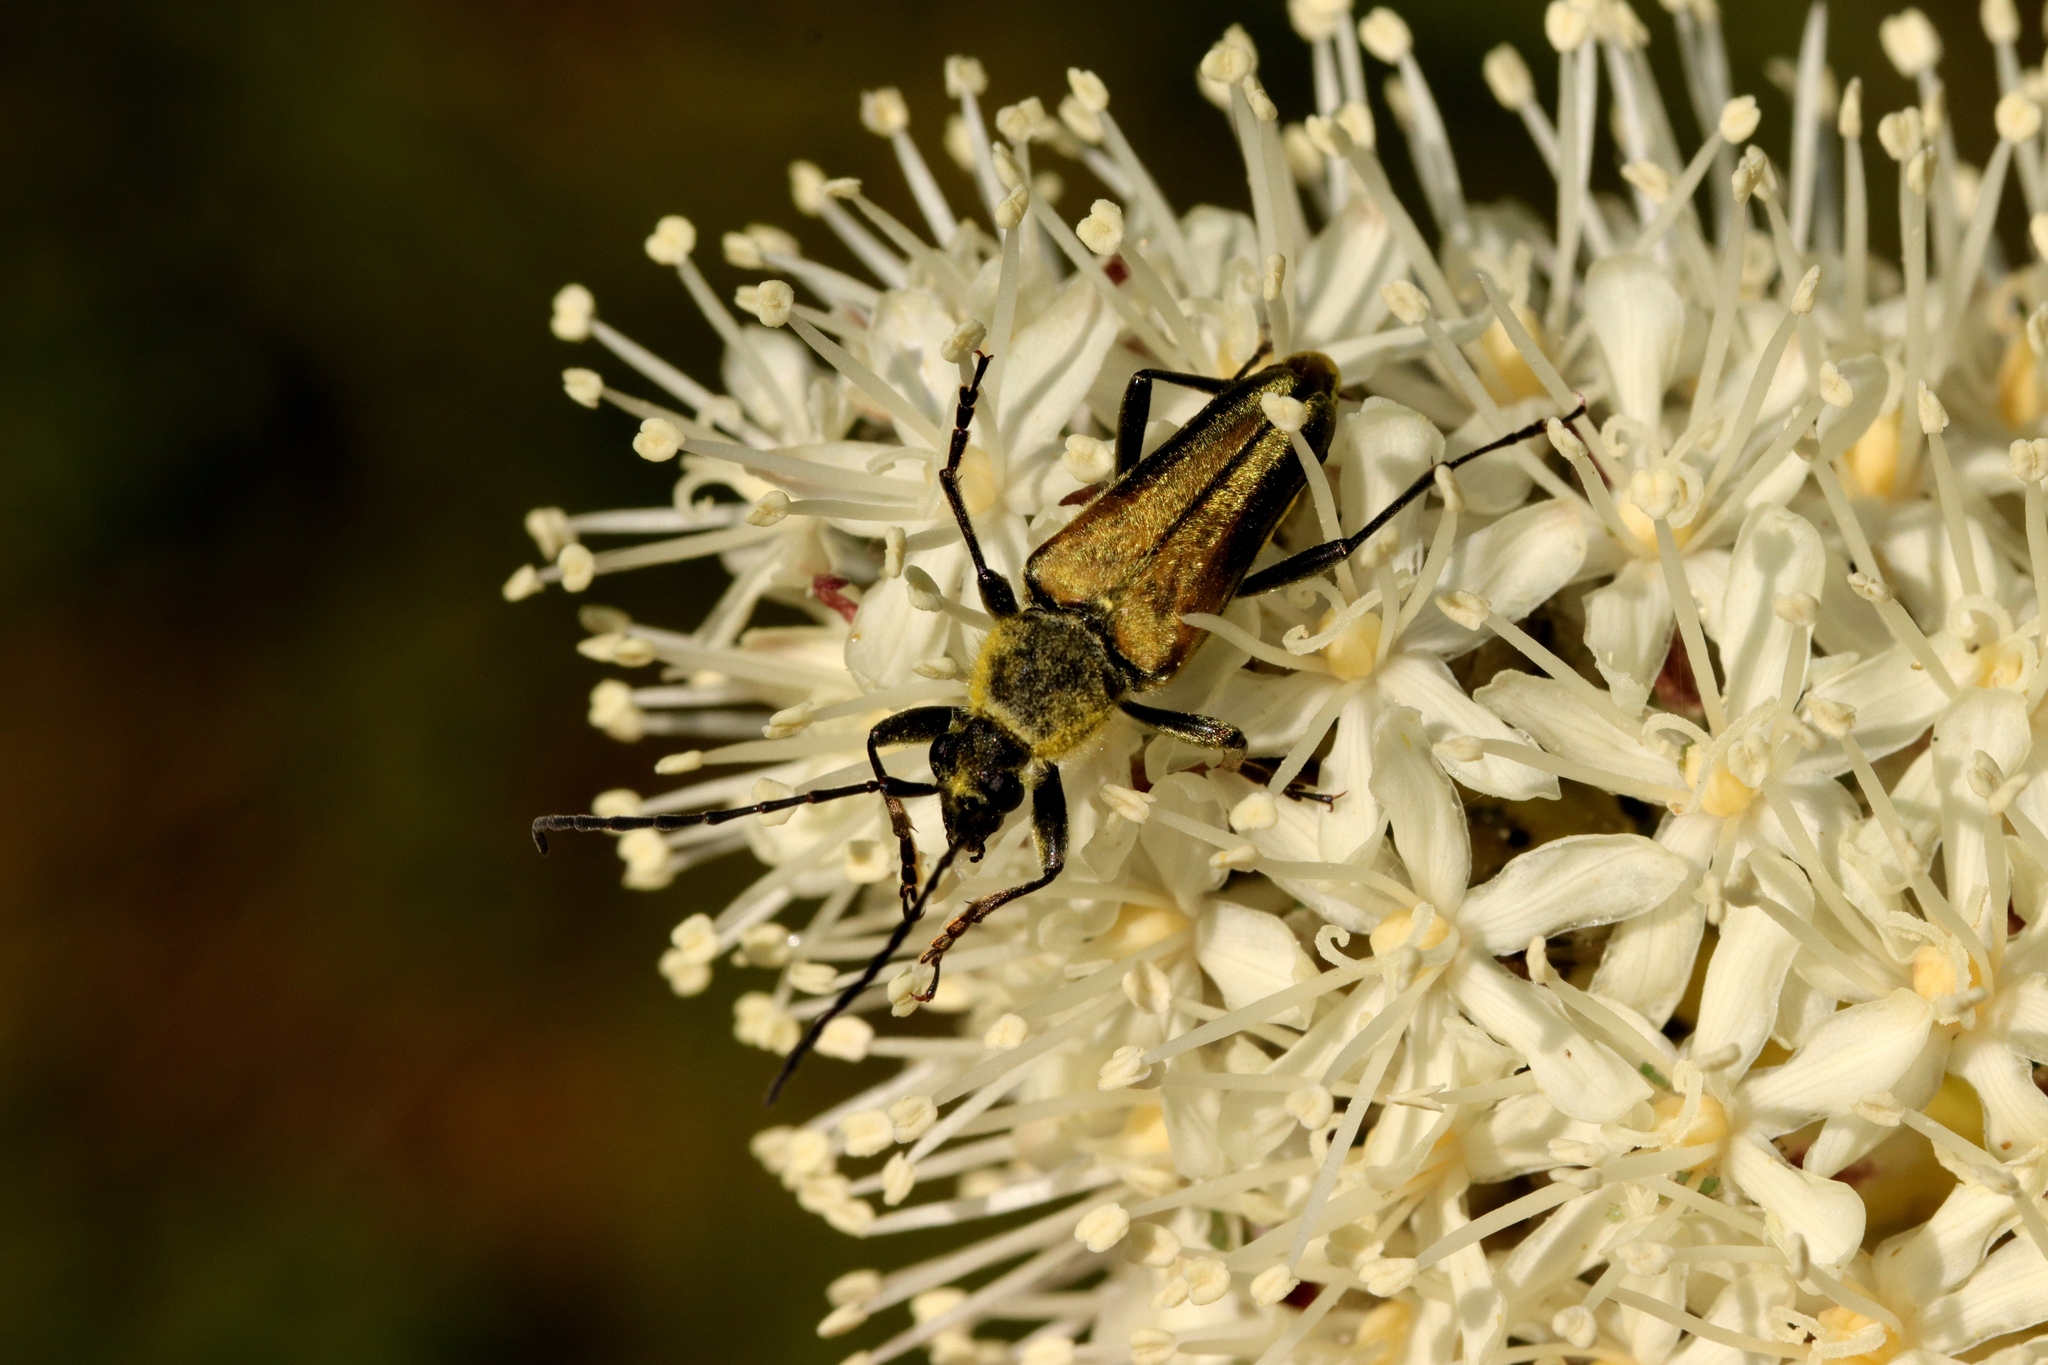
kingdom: Animalia
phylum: Arthropoda
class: Insecta
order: Coleoptera
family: Cerambycidae
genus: Cosmosalia
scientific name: Cosmosalia chrysocoma
